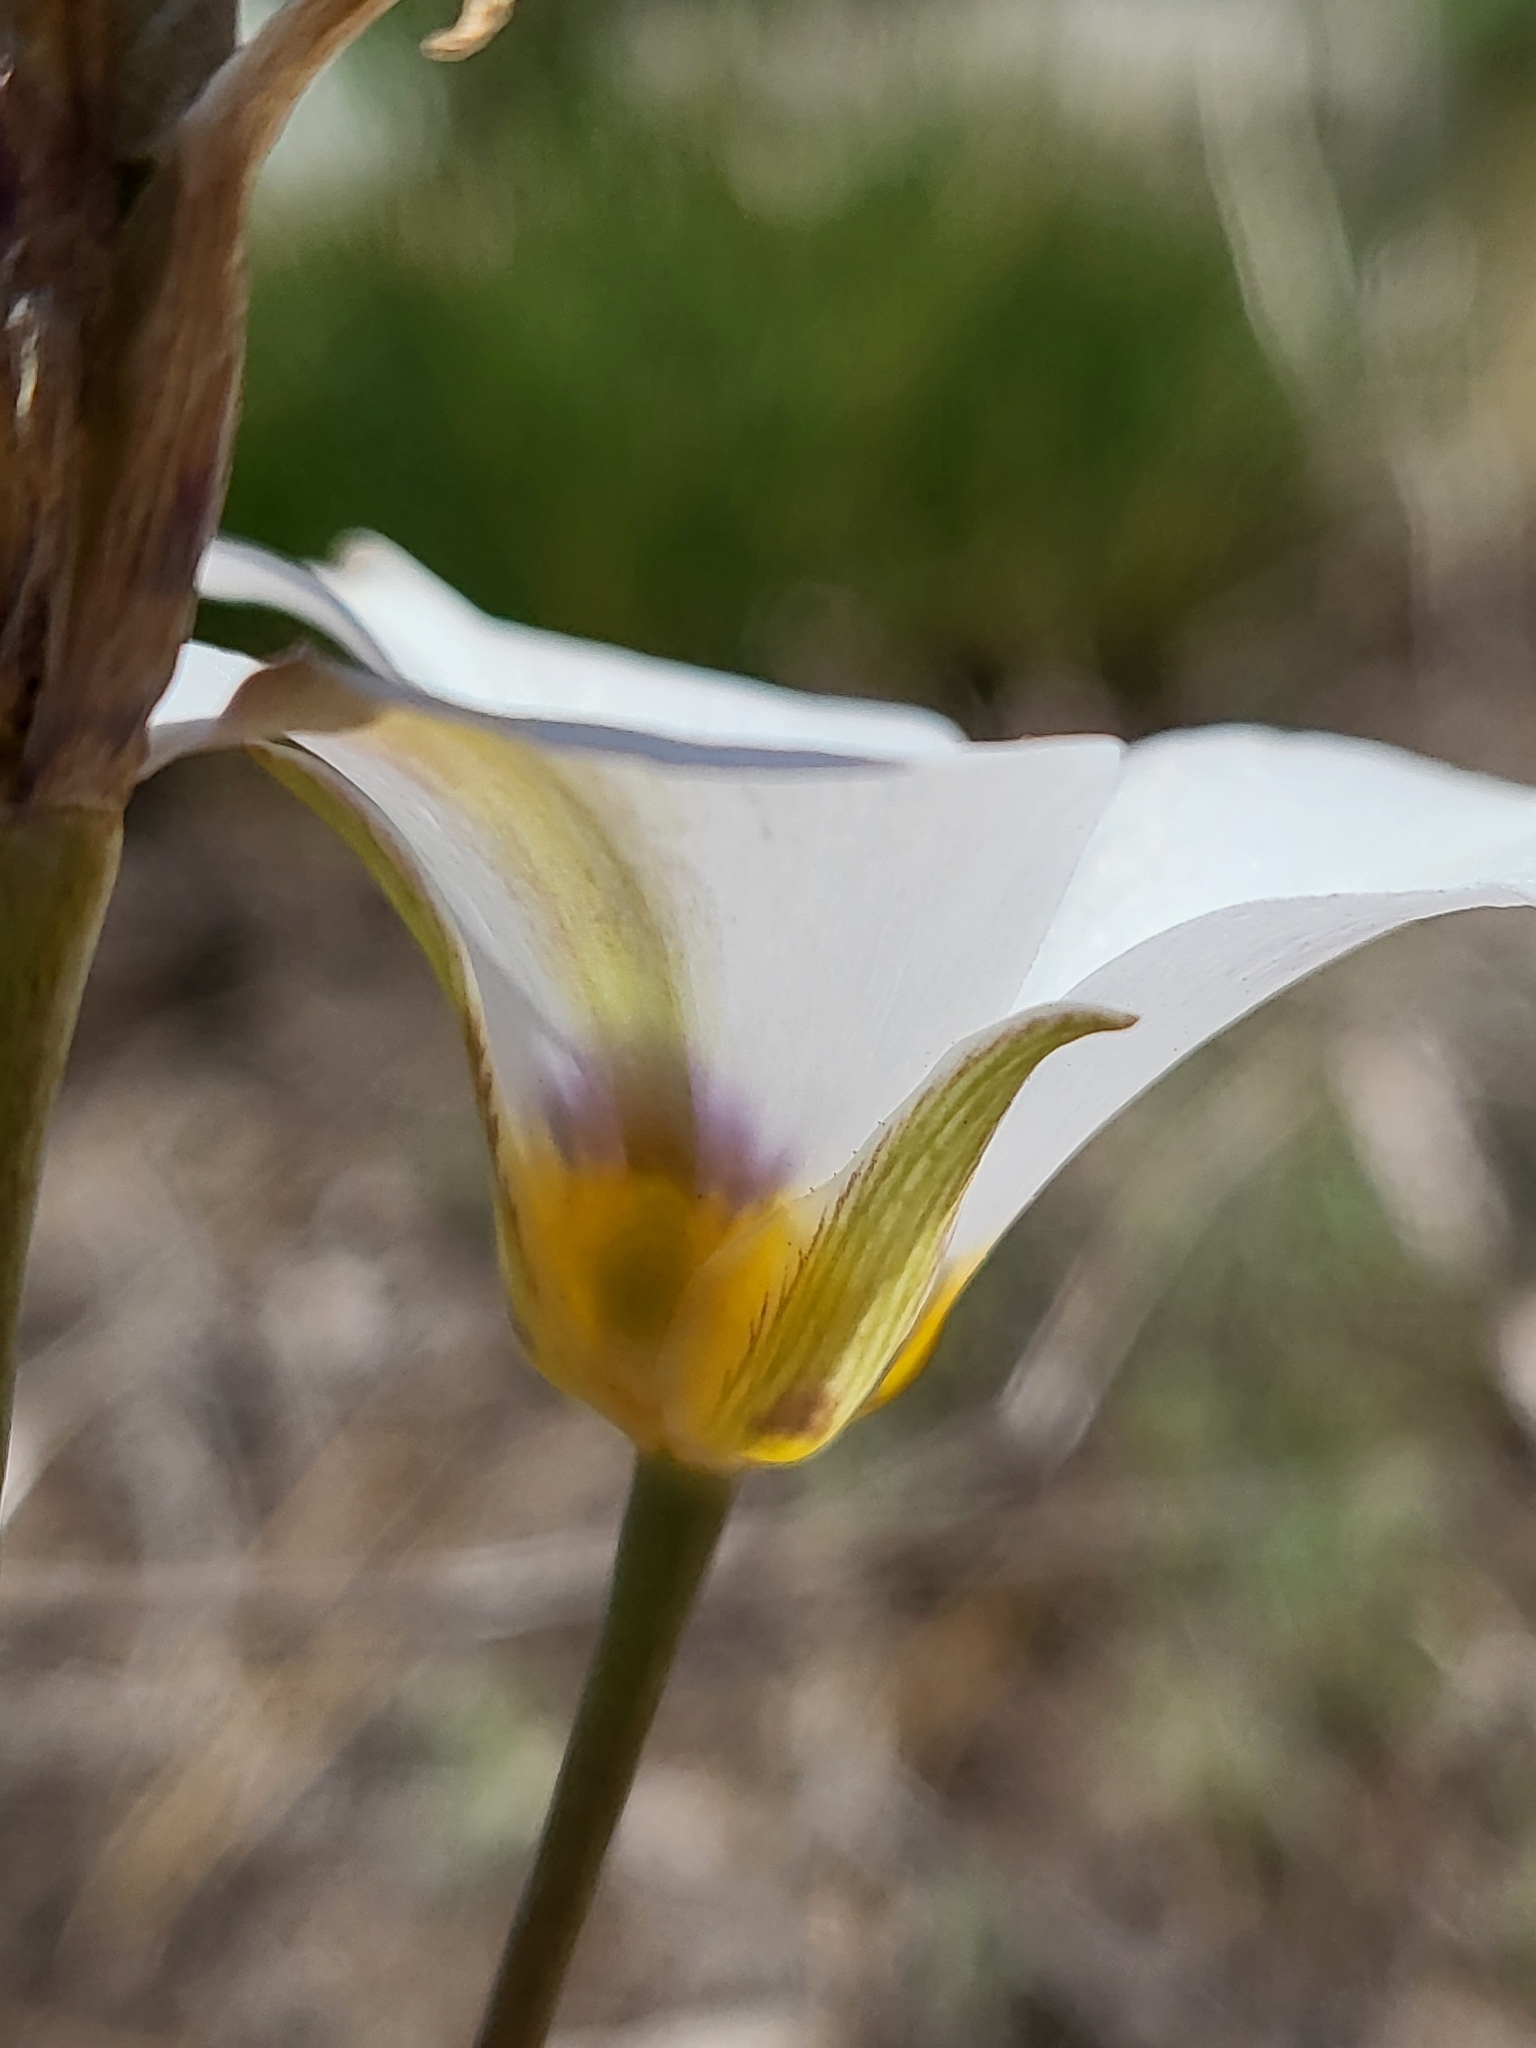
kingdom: Plantae
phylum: Tracheophyta
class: Liliopsida
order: Liliales
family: Liliaceae
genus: Calochortus
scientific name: Calochortus leichtlinii
